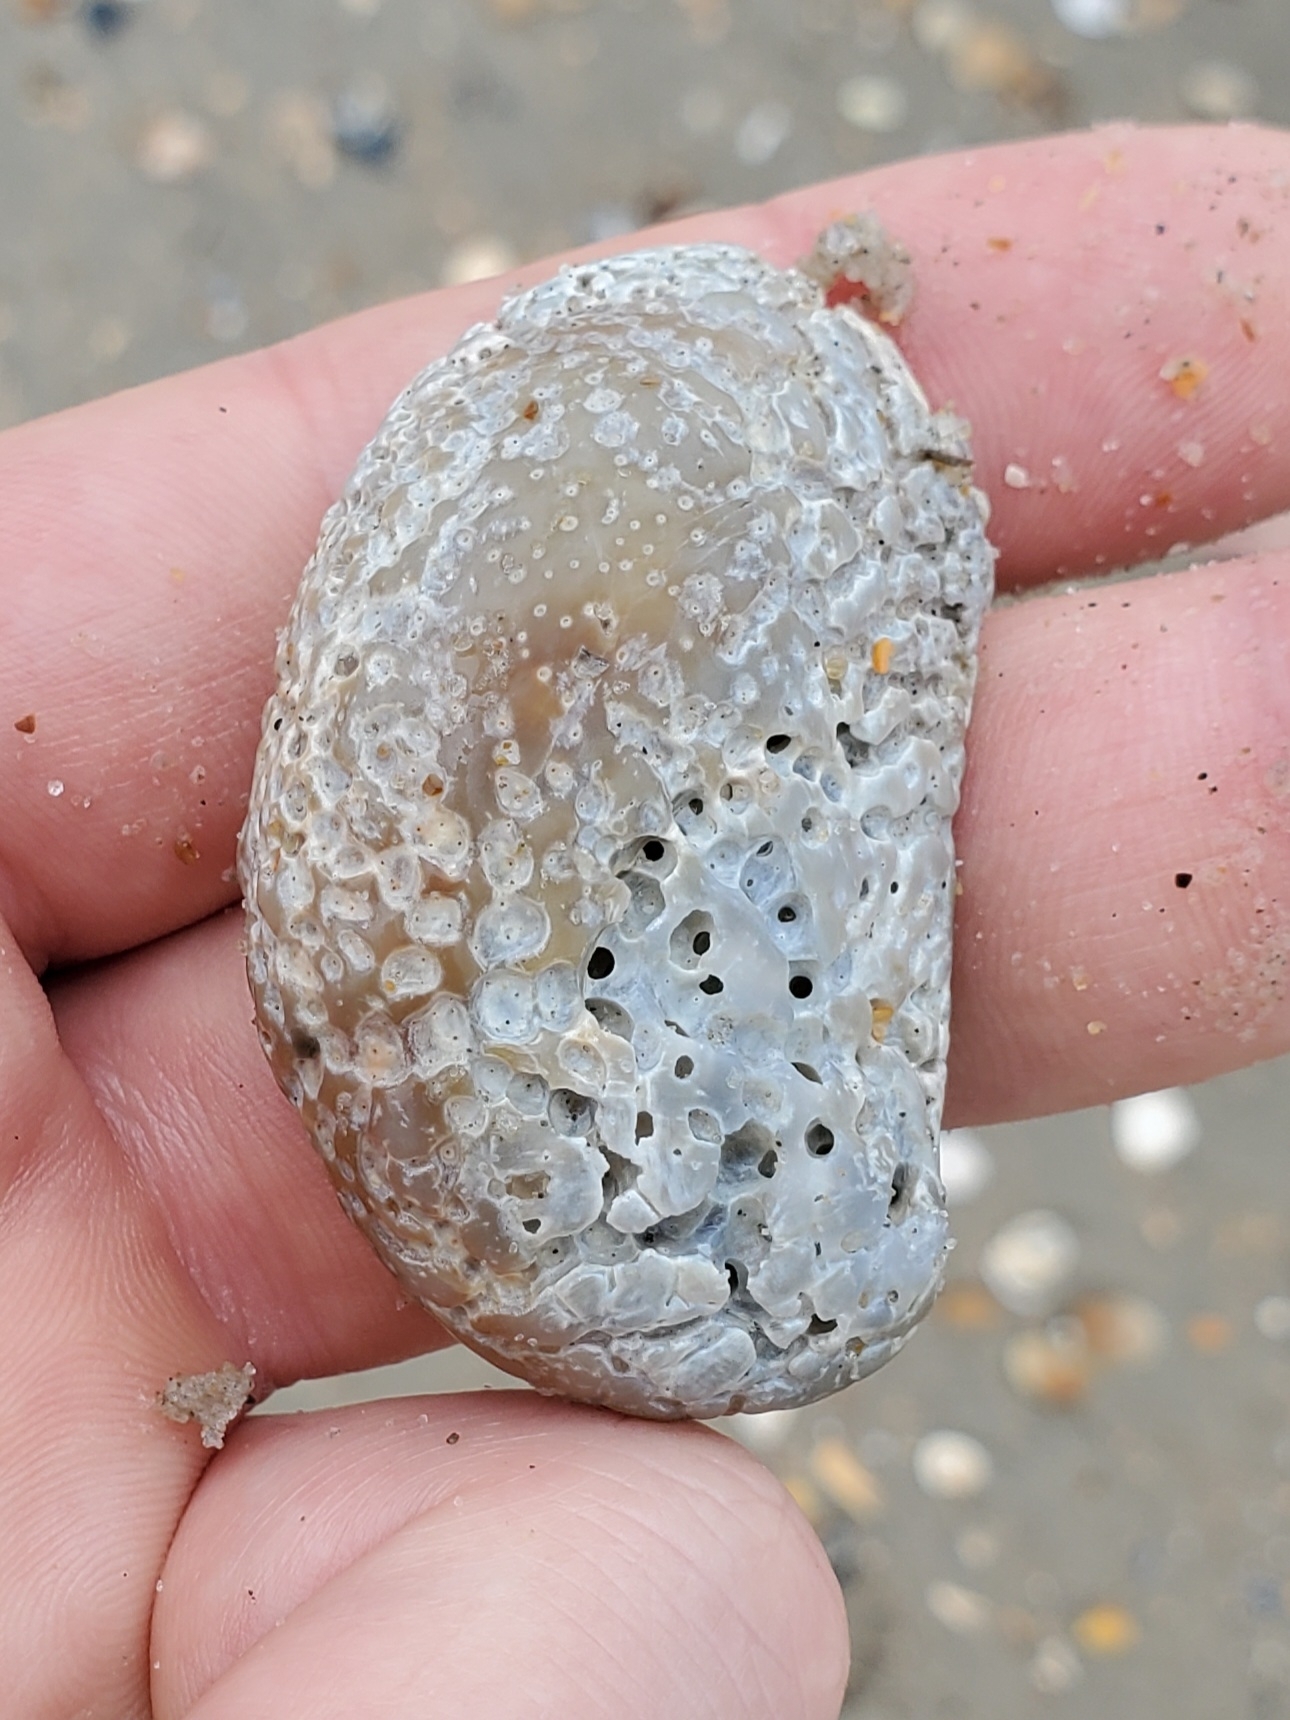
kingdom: Animalia
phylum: Mollusca
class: Gastropoda
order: Littorinimorpha
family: Calyptraeidae
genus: Crepidula
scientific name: Crepidula fornicata
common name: Slipper limpet
